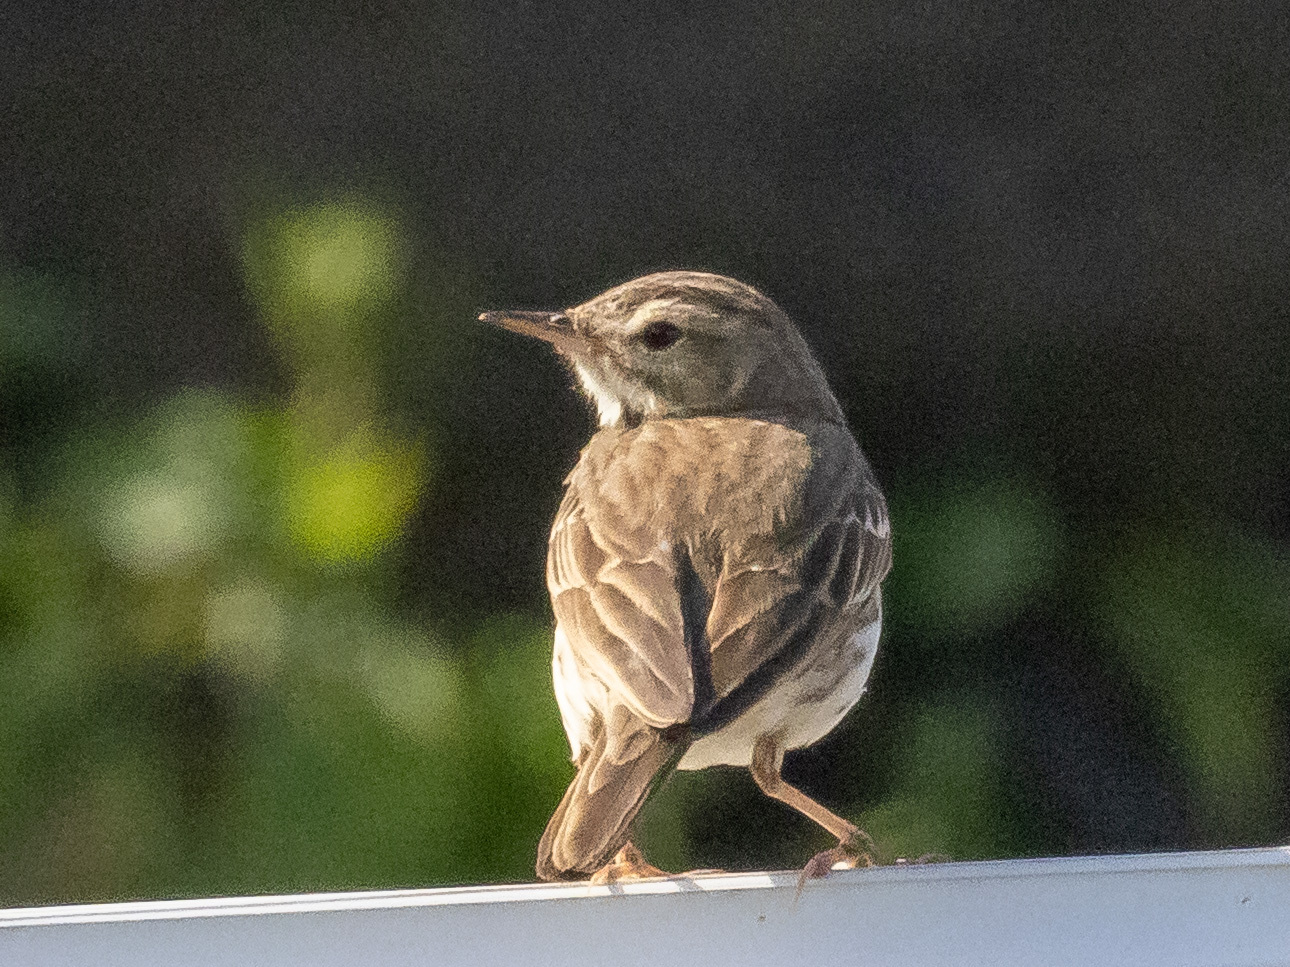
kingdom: Animalia
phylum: Chordata
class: Aves
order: Passeriformes
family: Motacillidae
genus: Anthus
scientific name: Anthus berthelotii
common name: Berthelot's pipit
